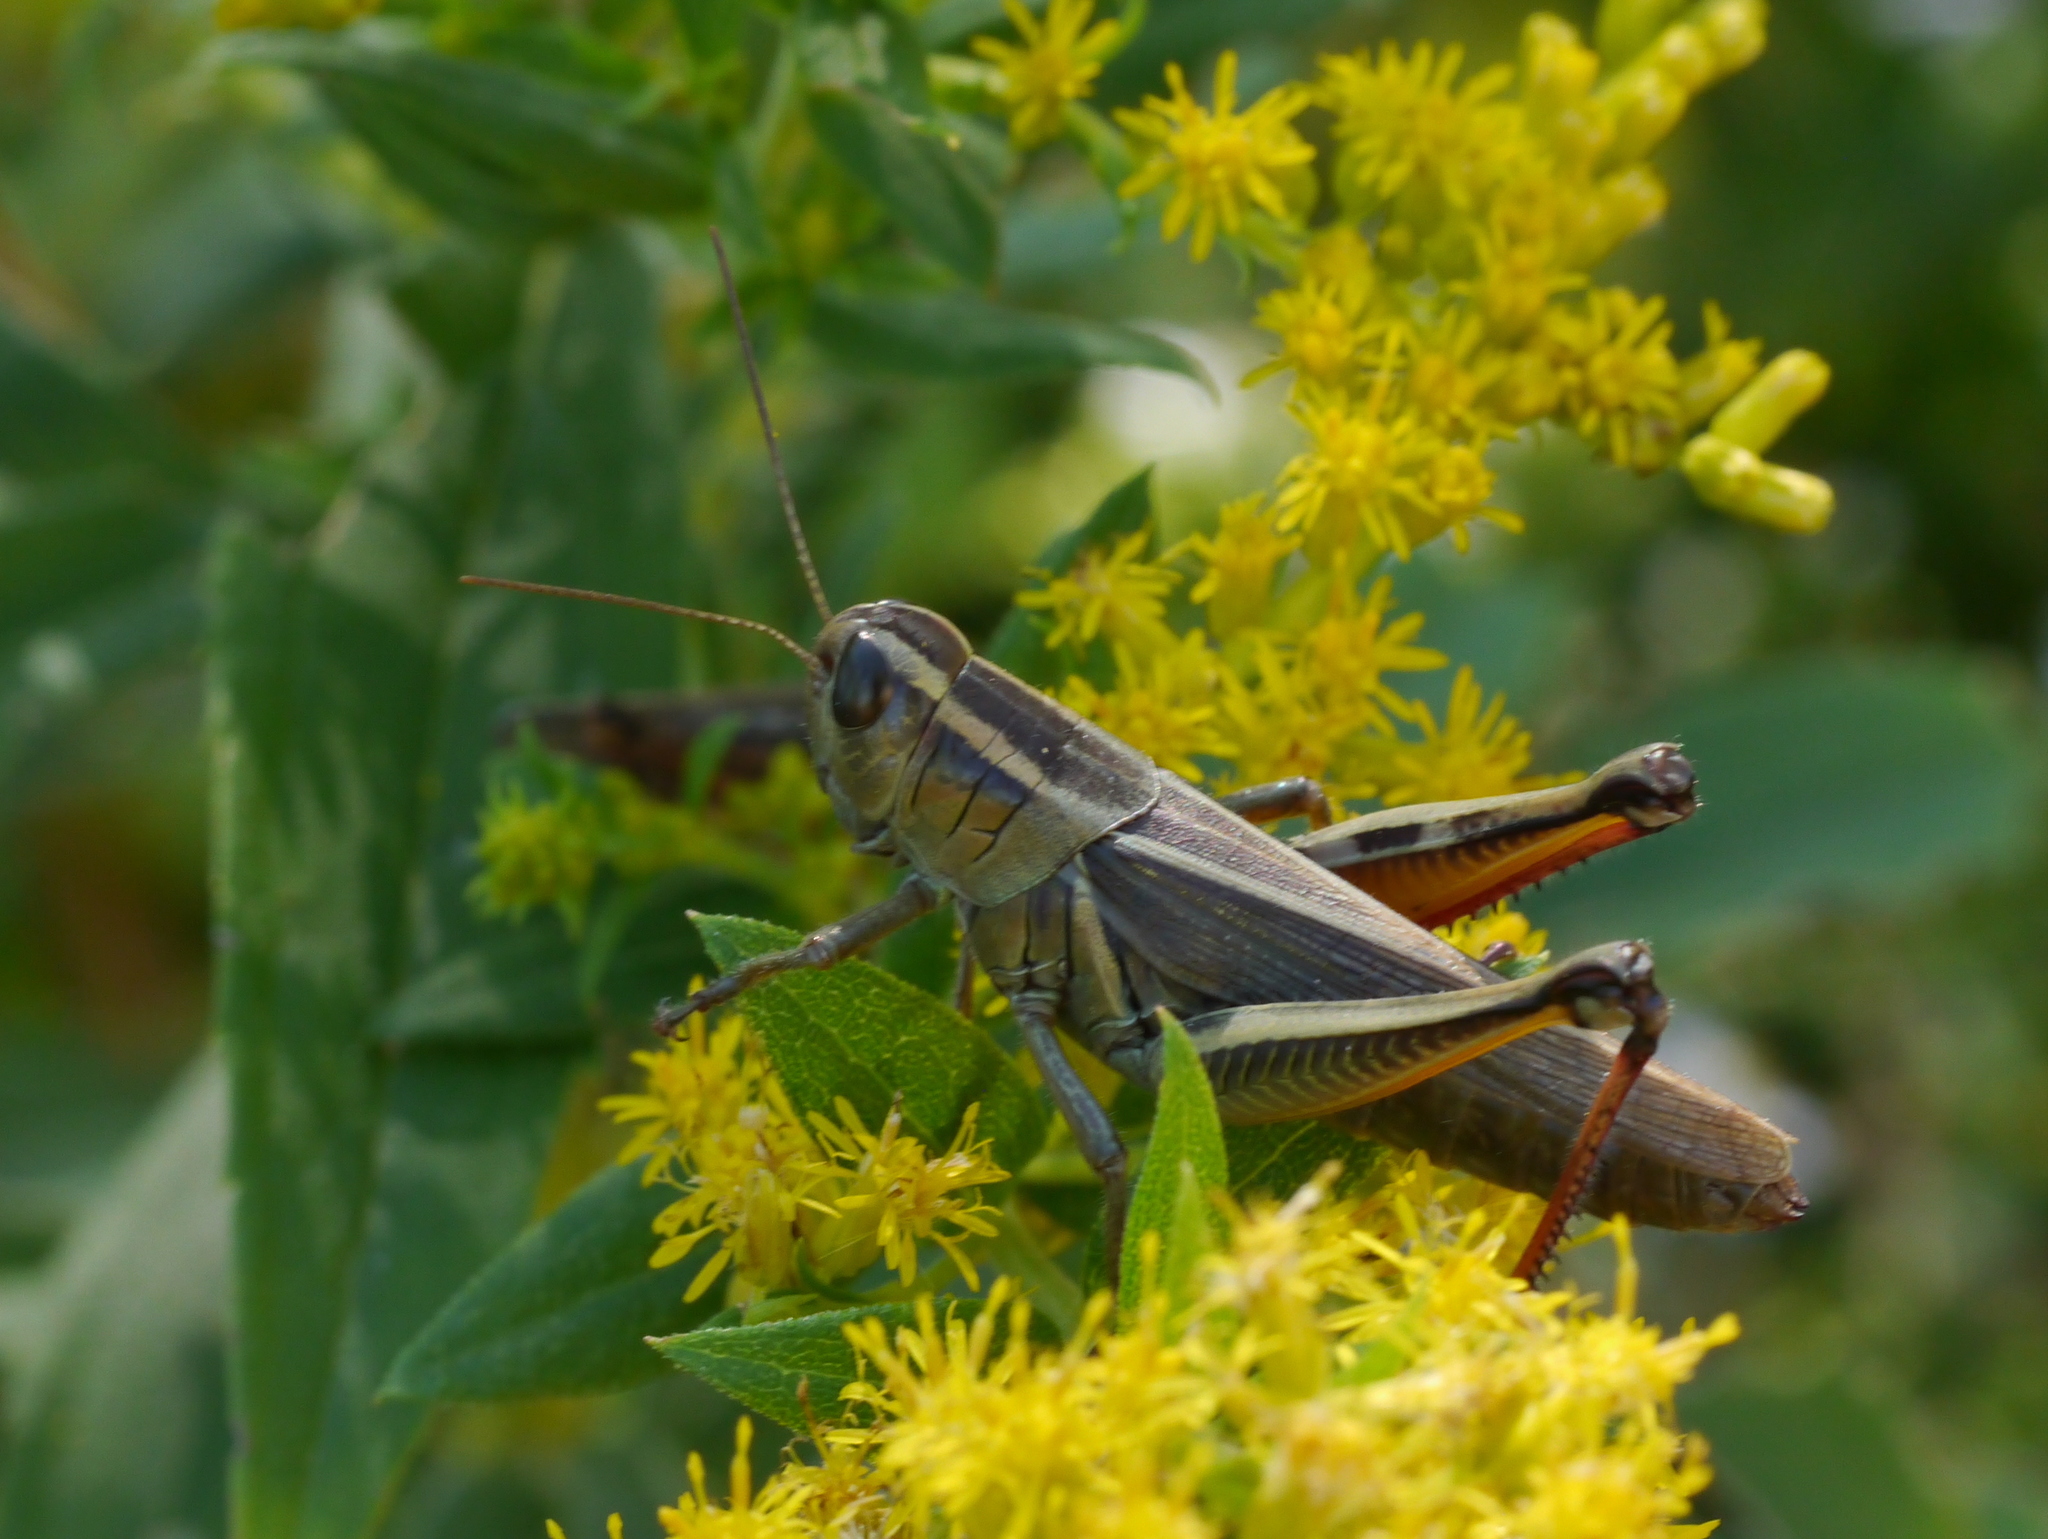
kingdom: Animalia
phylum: Arthropoda
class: Insecta
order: Orthoptera
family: Acrididae
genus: Melanoplus
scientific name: Melanoplus bivittatus
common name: Two-striped grasshopper
